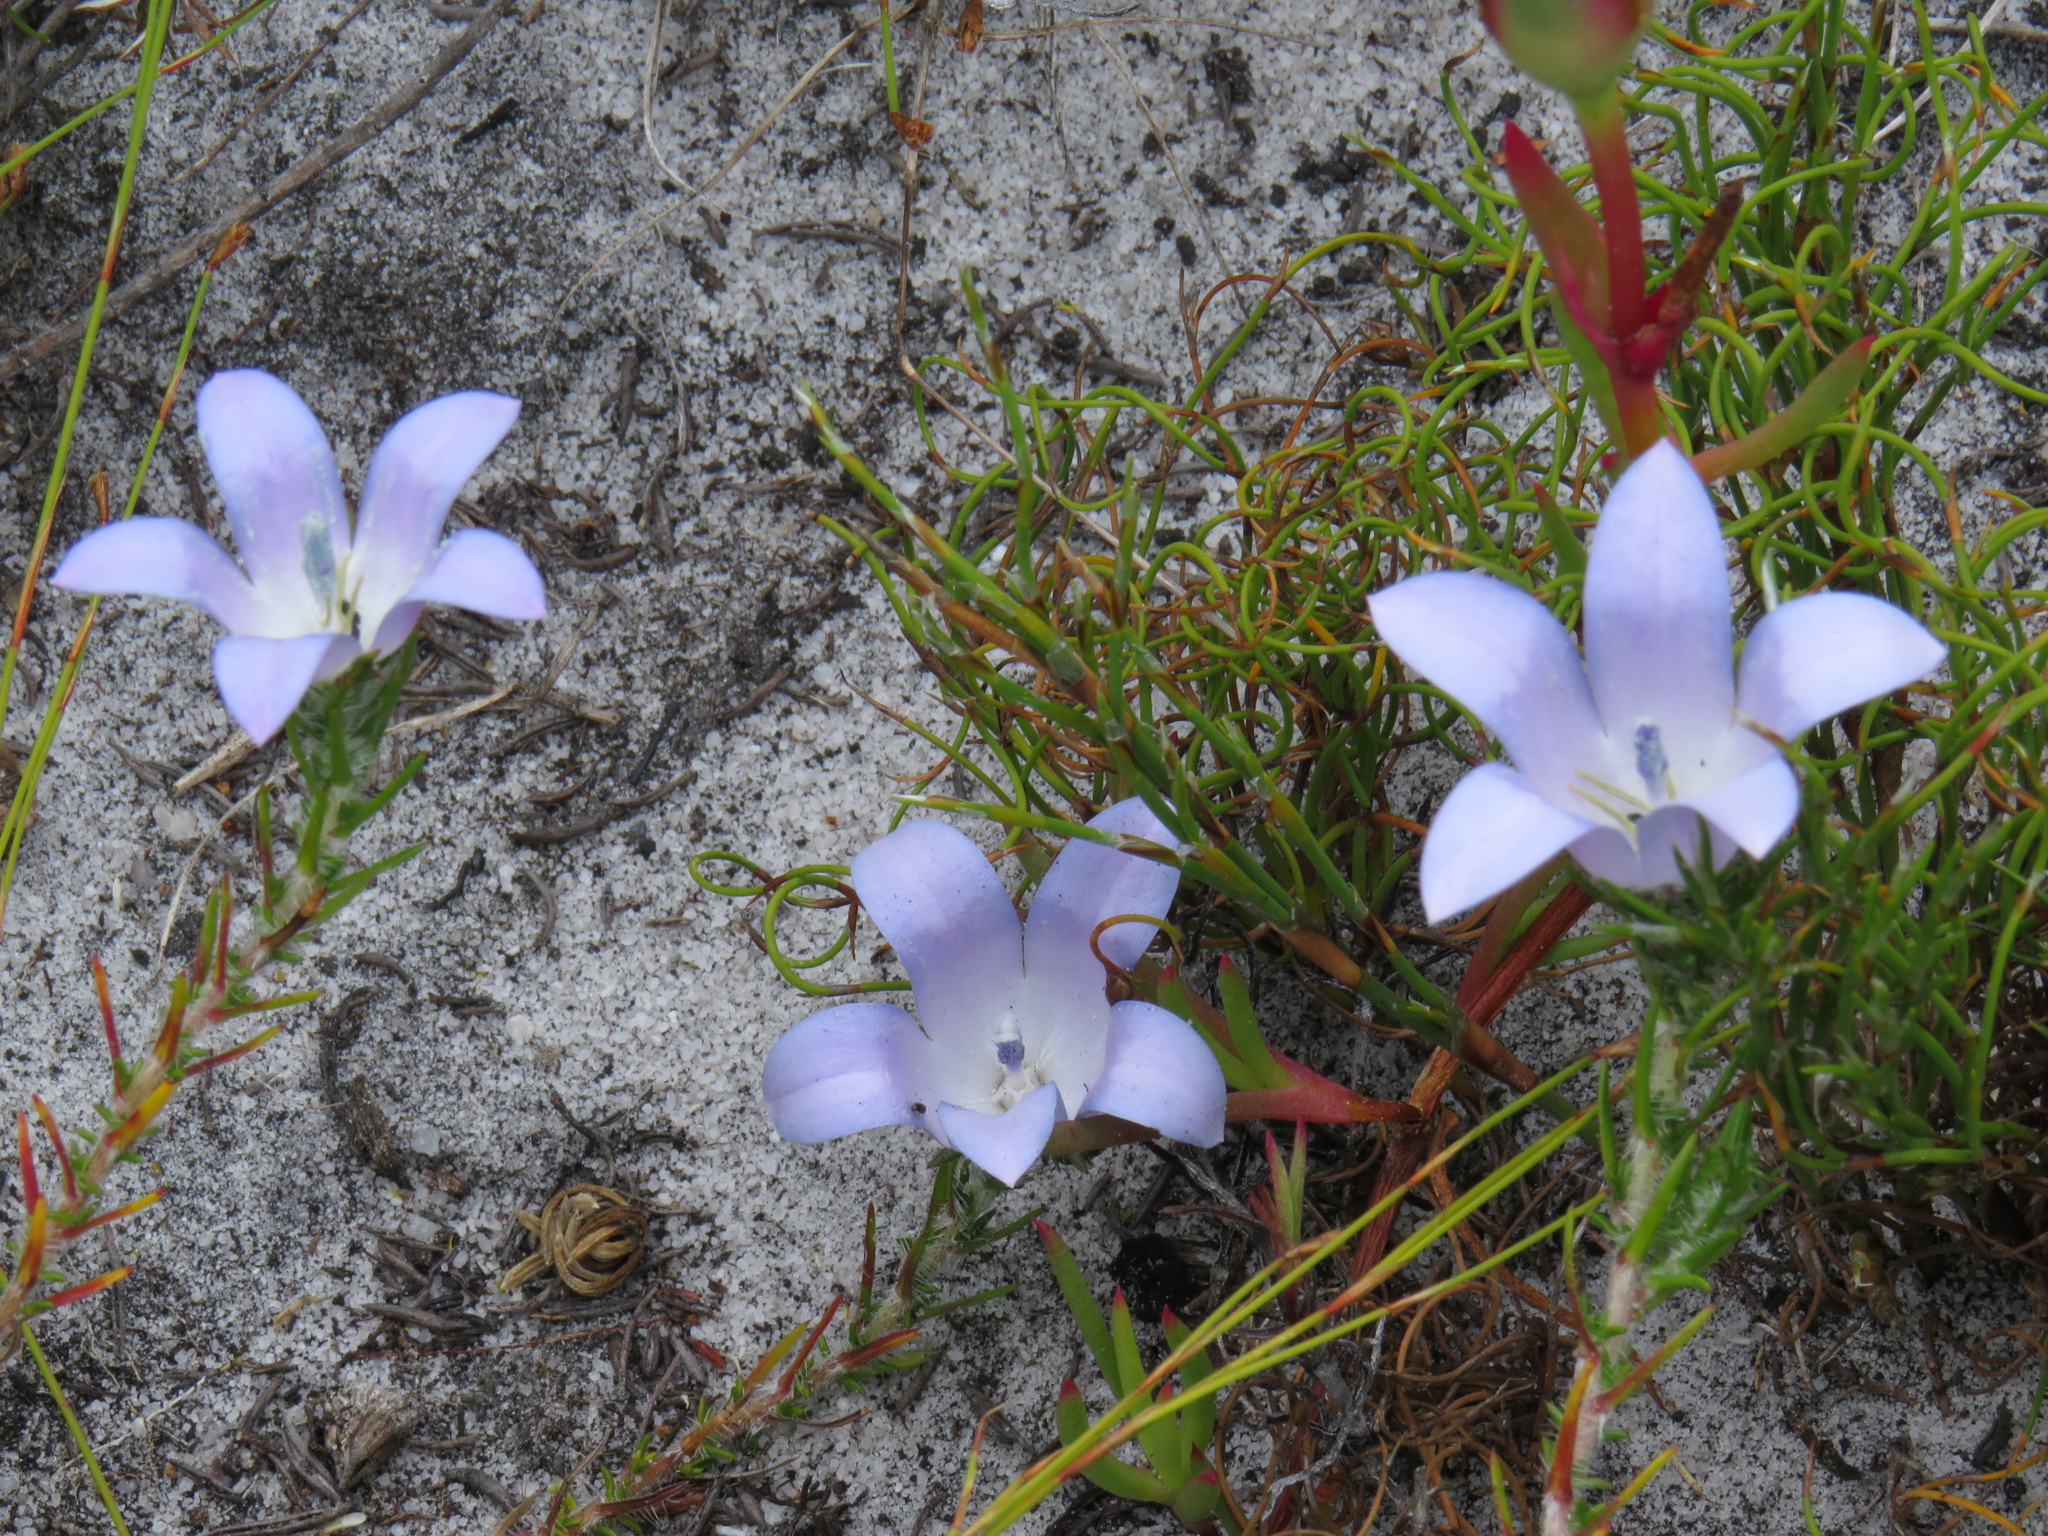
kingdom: Plantae
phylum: Tracheophyta
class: Magnoliopsida
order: Asterales
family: Campanulaceae
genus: Roella
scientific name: Roella prostrata
